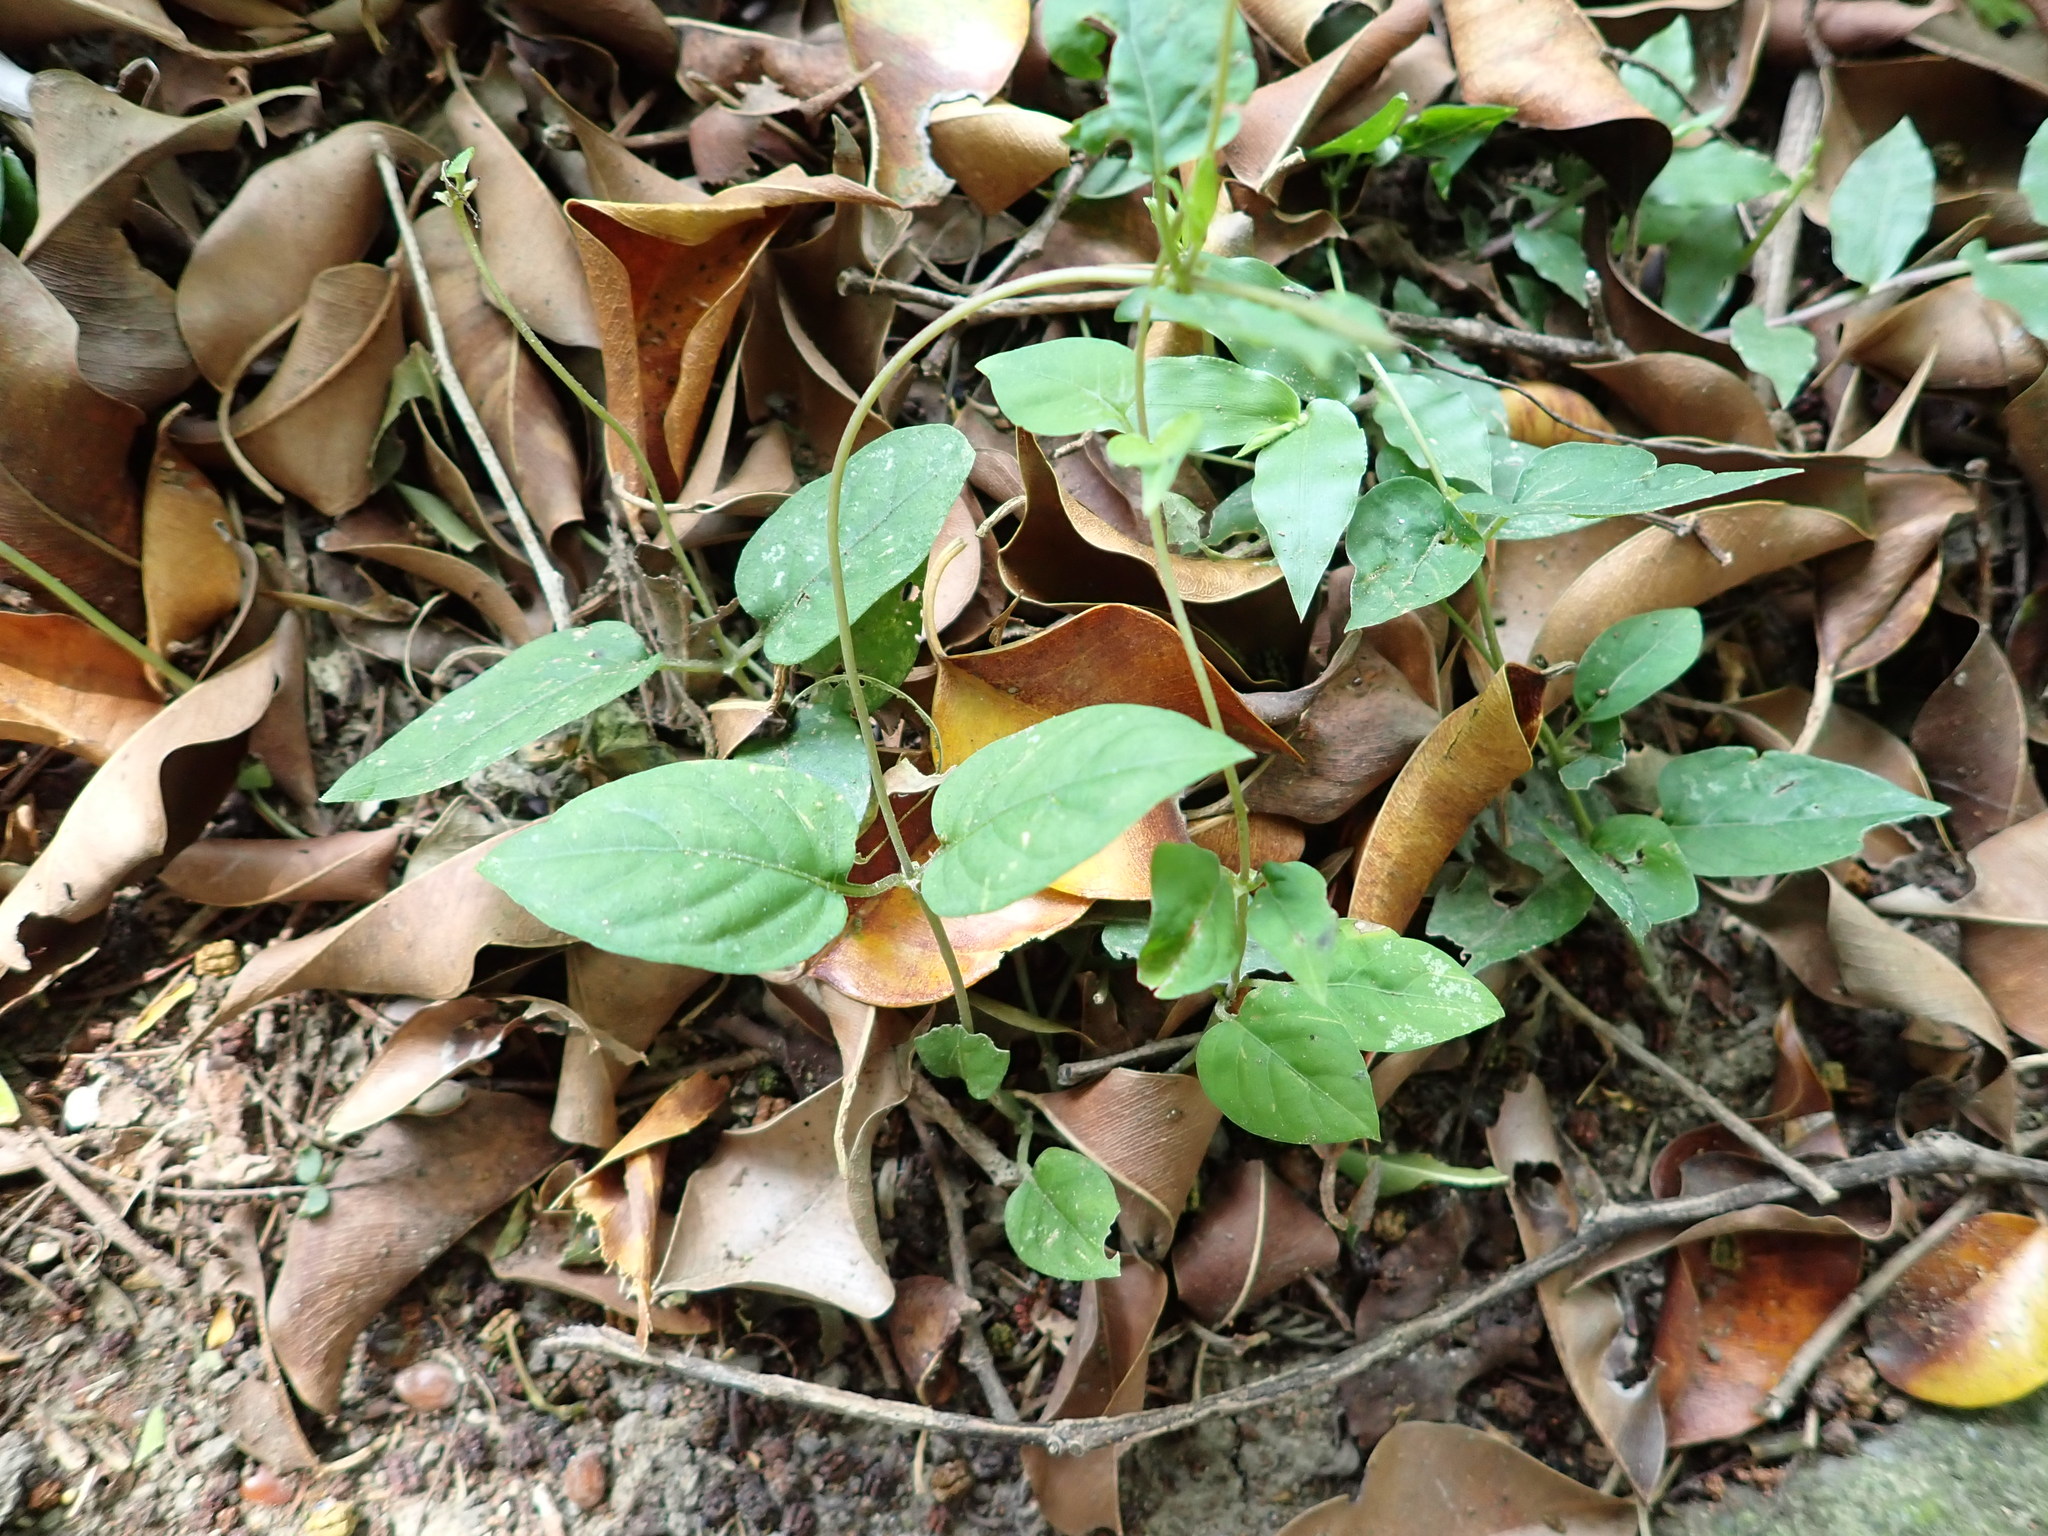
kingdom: Plantae
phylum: Tracheophyta
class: Magnoliopsida
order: Gentianales
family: Rubiaceae
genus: Paederia
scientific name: Paederia foetida
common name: Stinkvine
